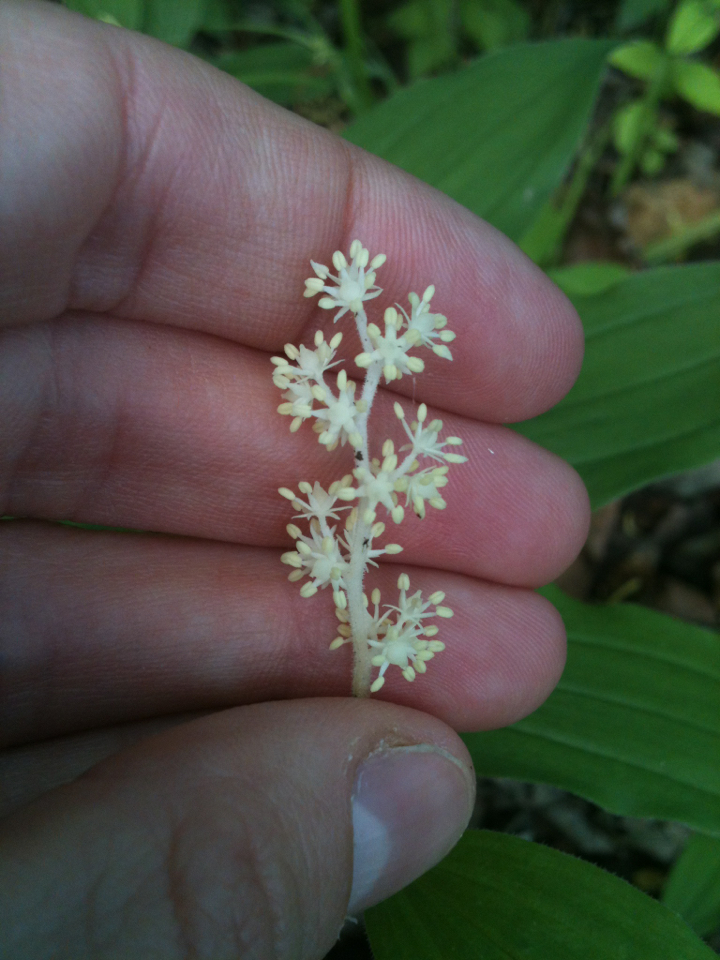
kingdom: Plantae
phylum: Tracheophyta
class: Liliopsida
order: Asparagales
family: Asparagaceae
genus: Maianthemum
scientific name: Maianthemum racemosum
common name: False spikenard
